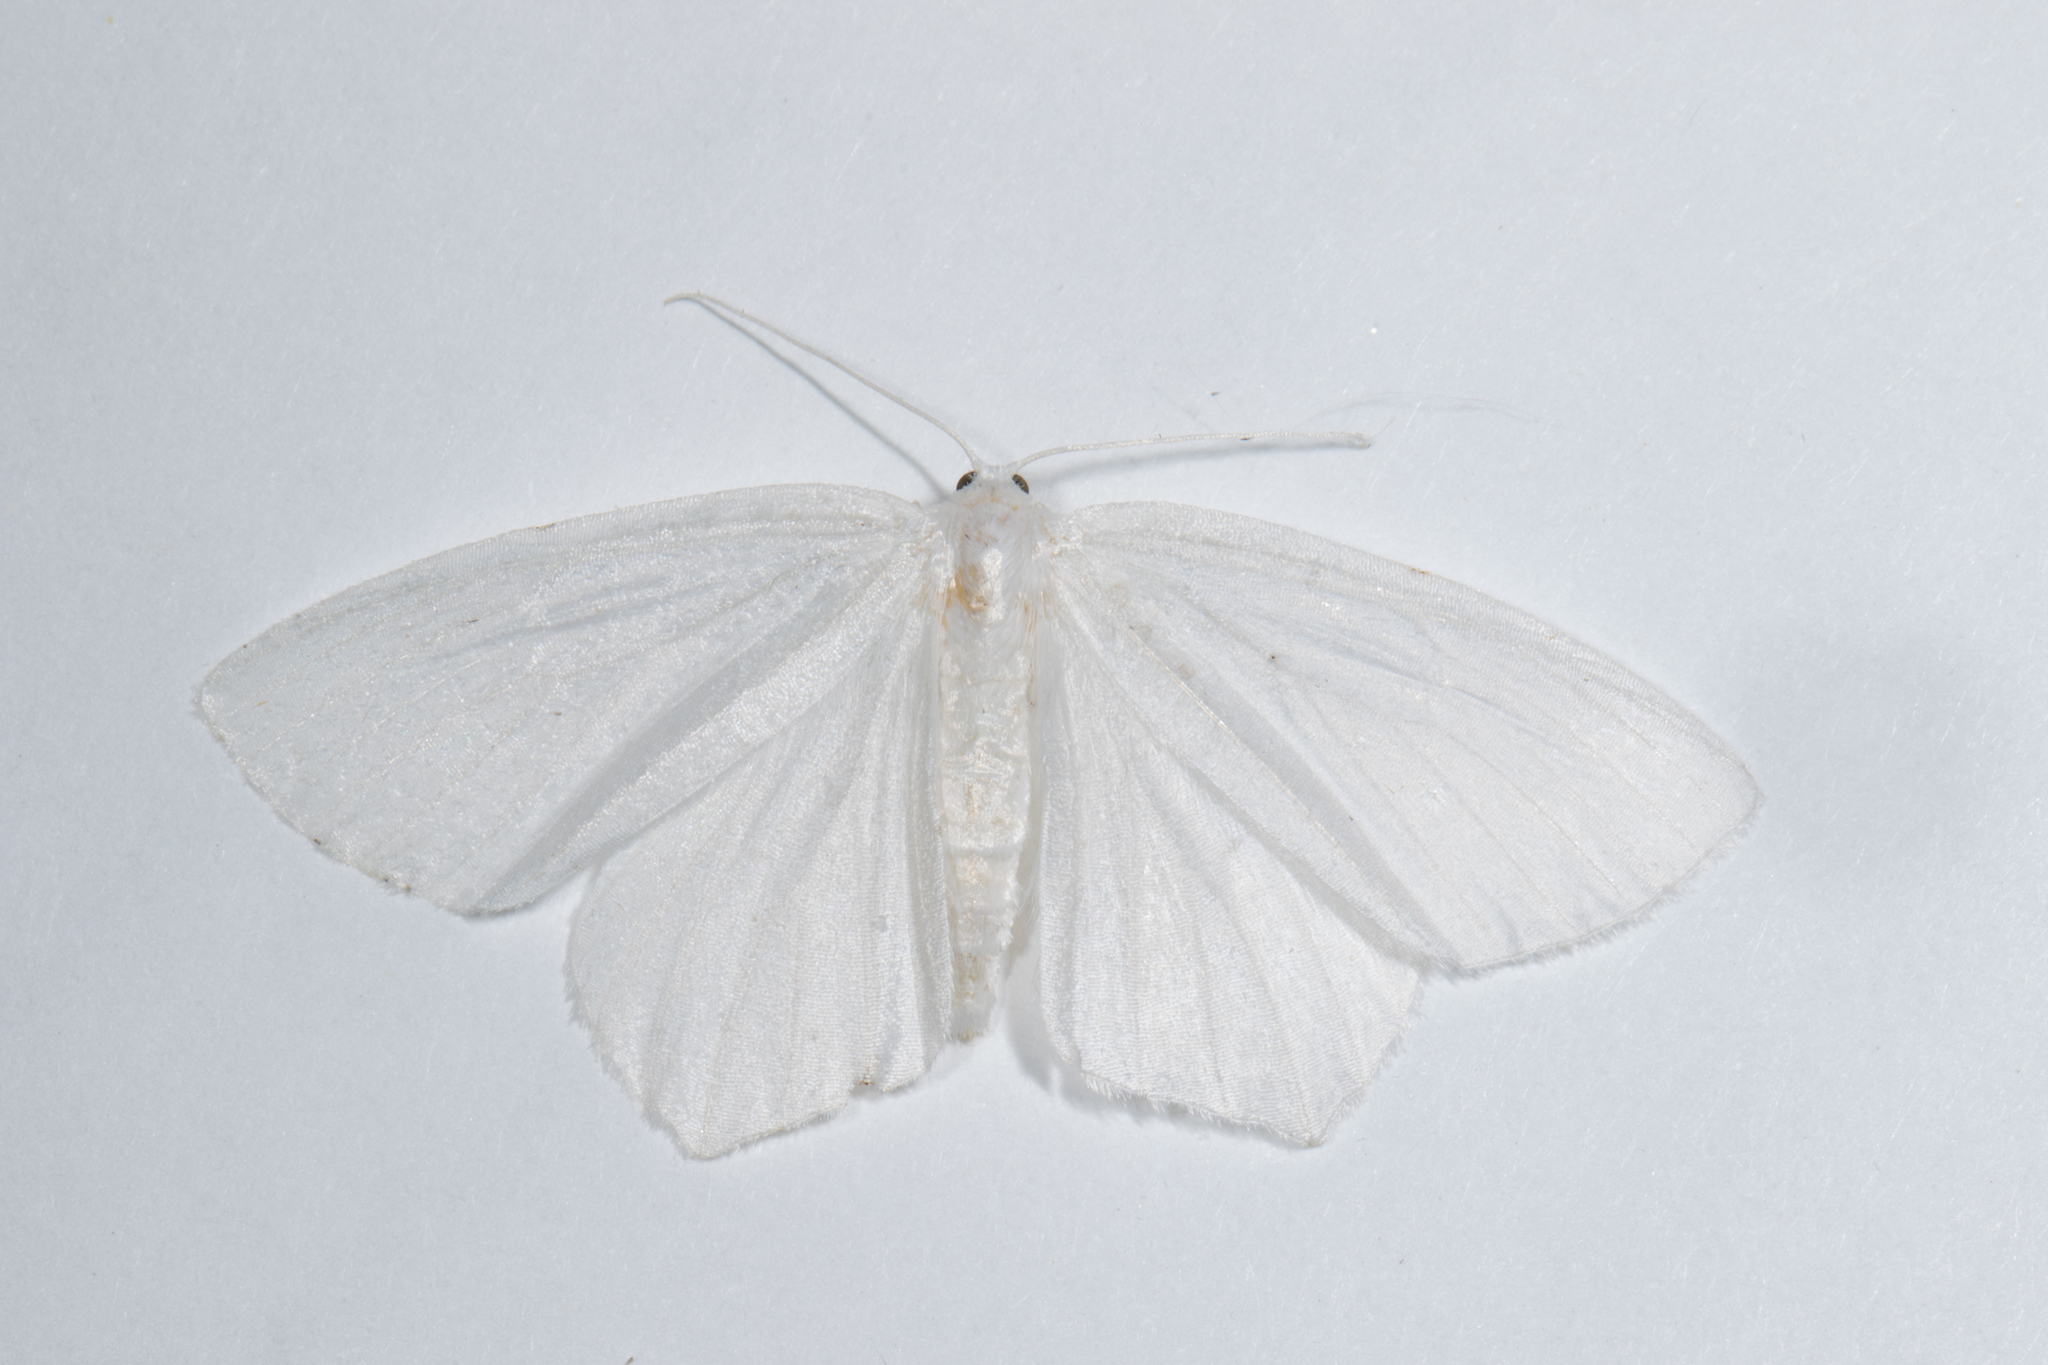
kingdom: Animalia
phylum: Arthropoda
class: Insecta
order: Lepidoptera
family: Geometridae
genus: Eugonobapta
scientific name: Eugonobapta nivosaria
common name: Snowy geometer
